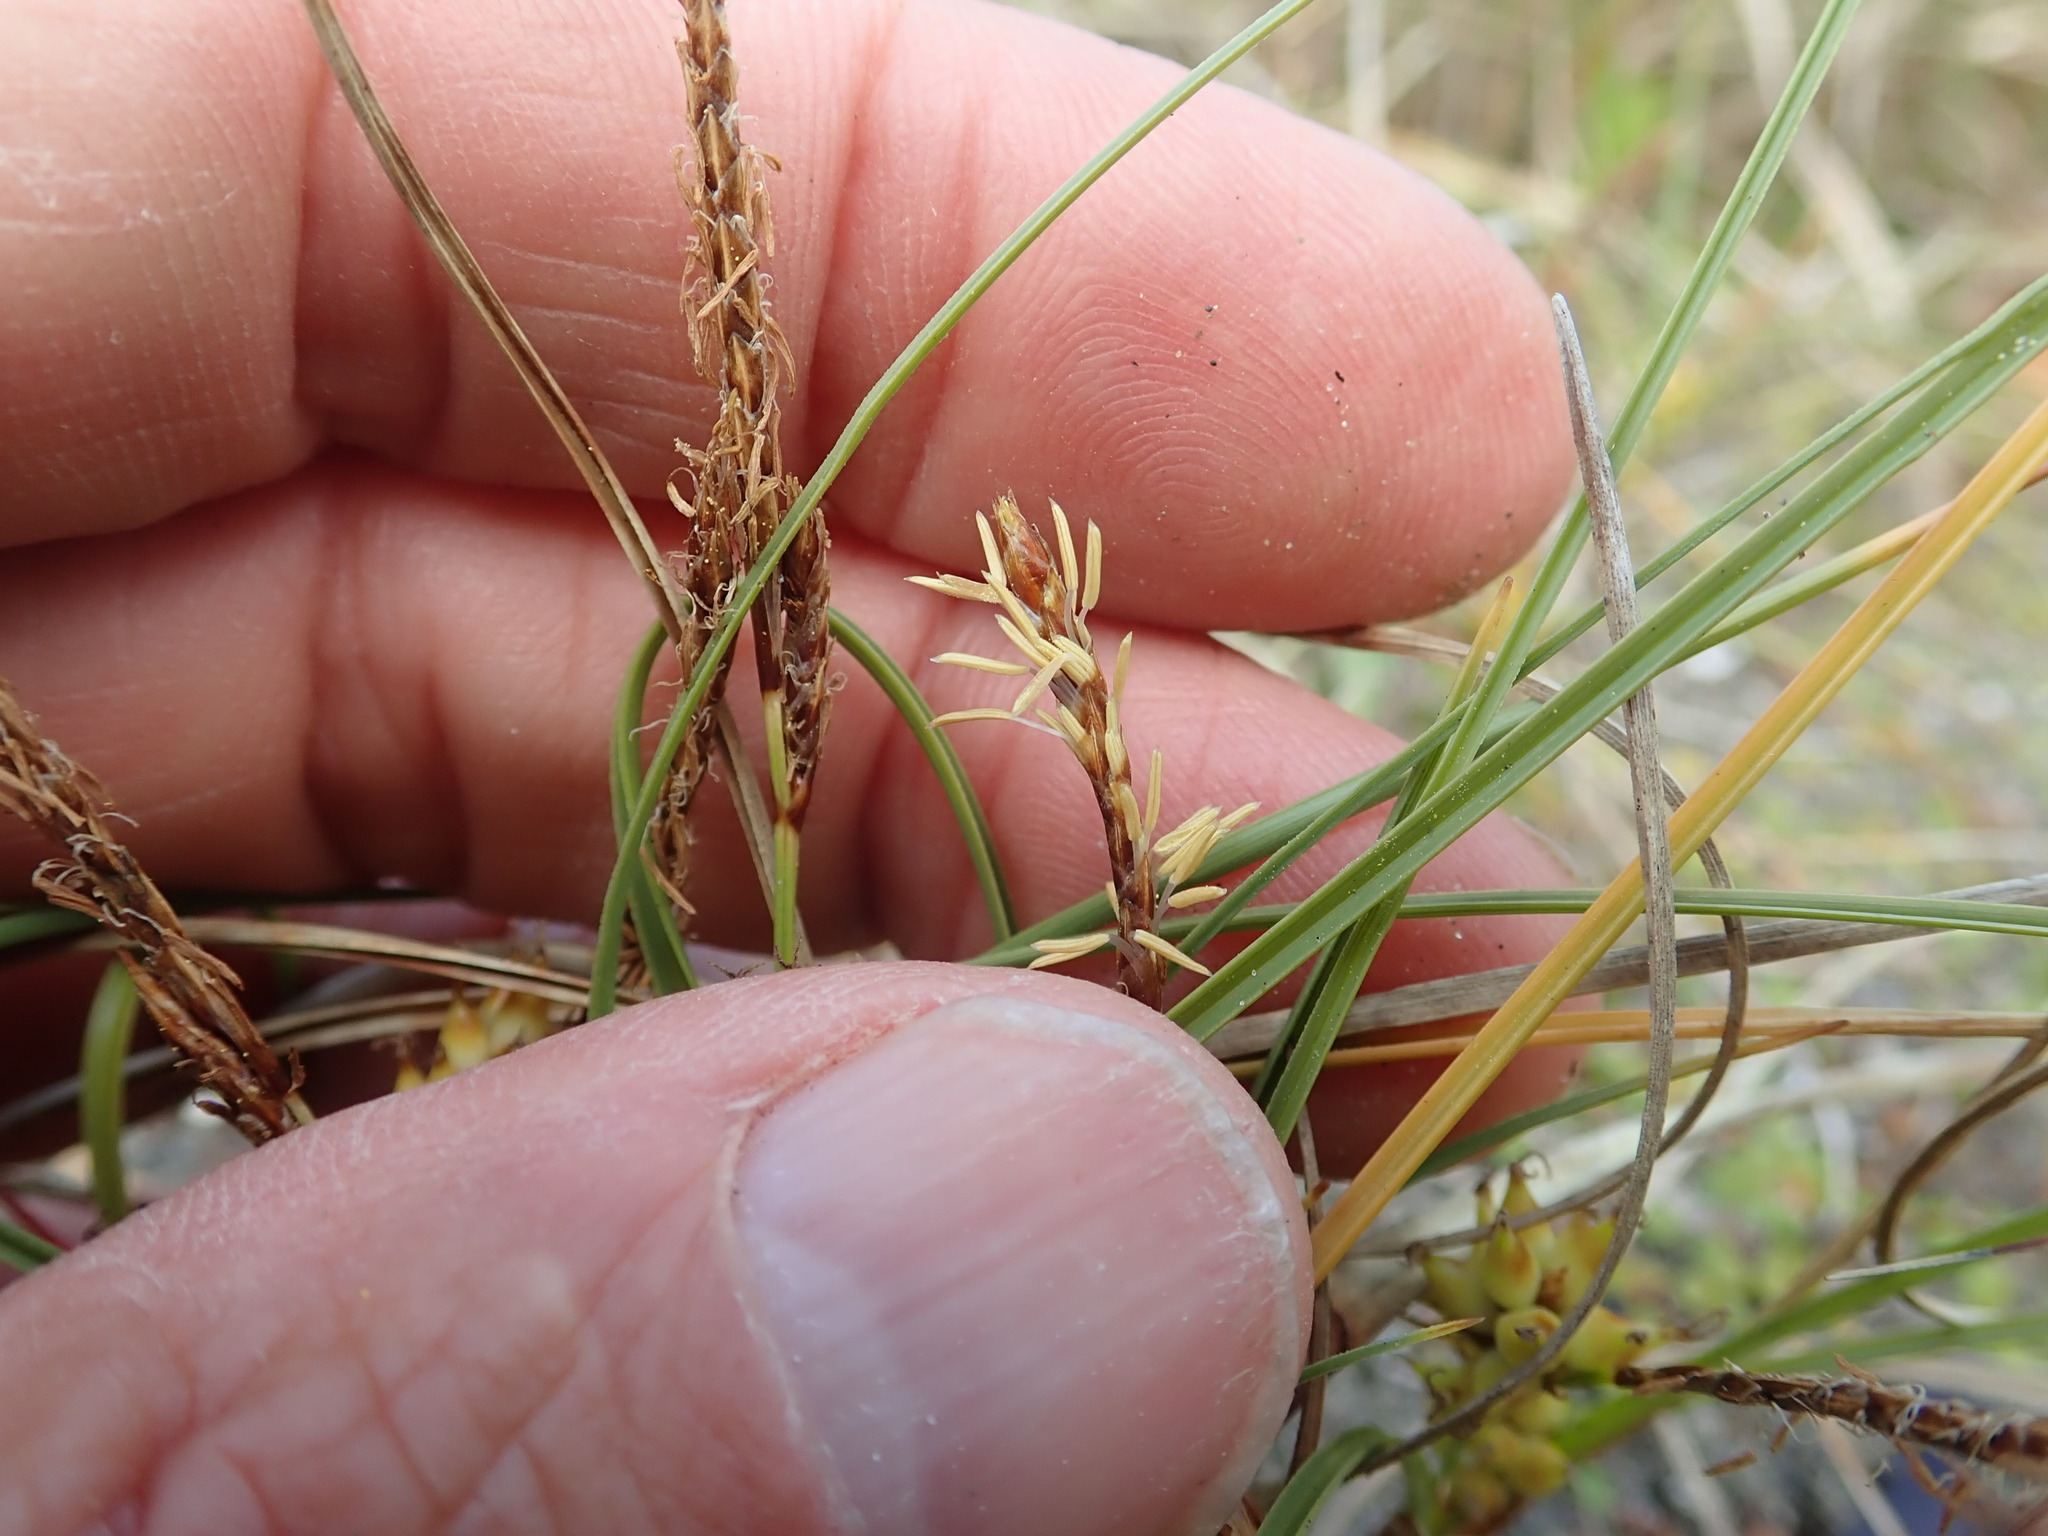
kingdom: Plantae
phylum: Tracheophyta
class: Liliopsida
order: Poales
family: Cyperaceae
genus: Carex
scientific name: Carex pumila
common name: Dwarf sedge
